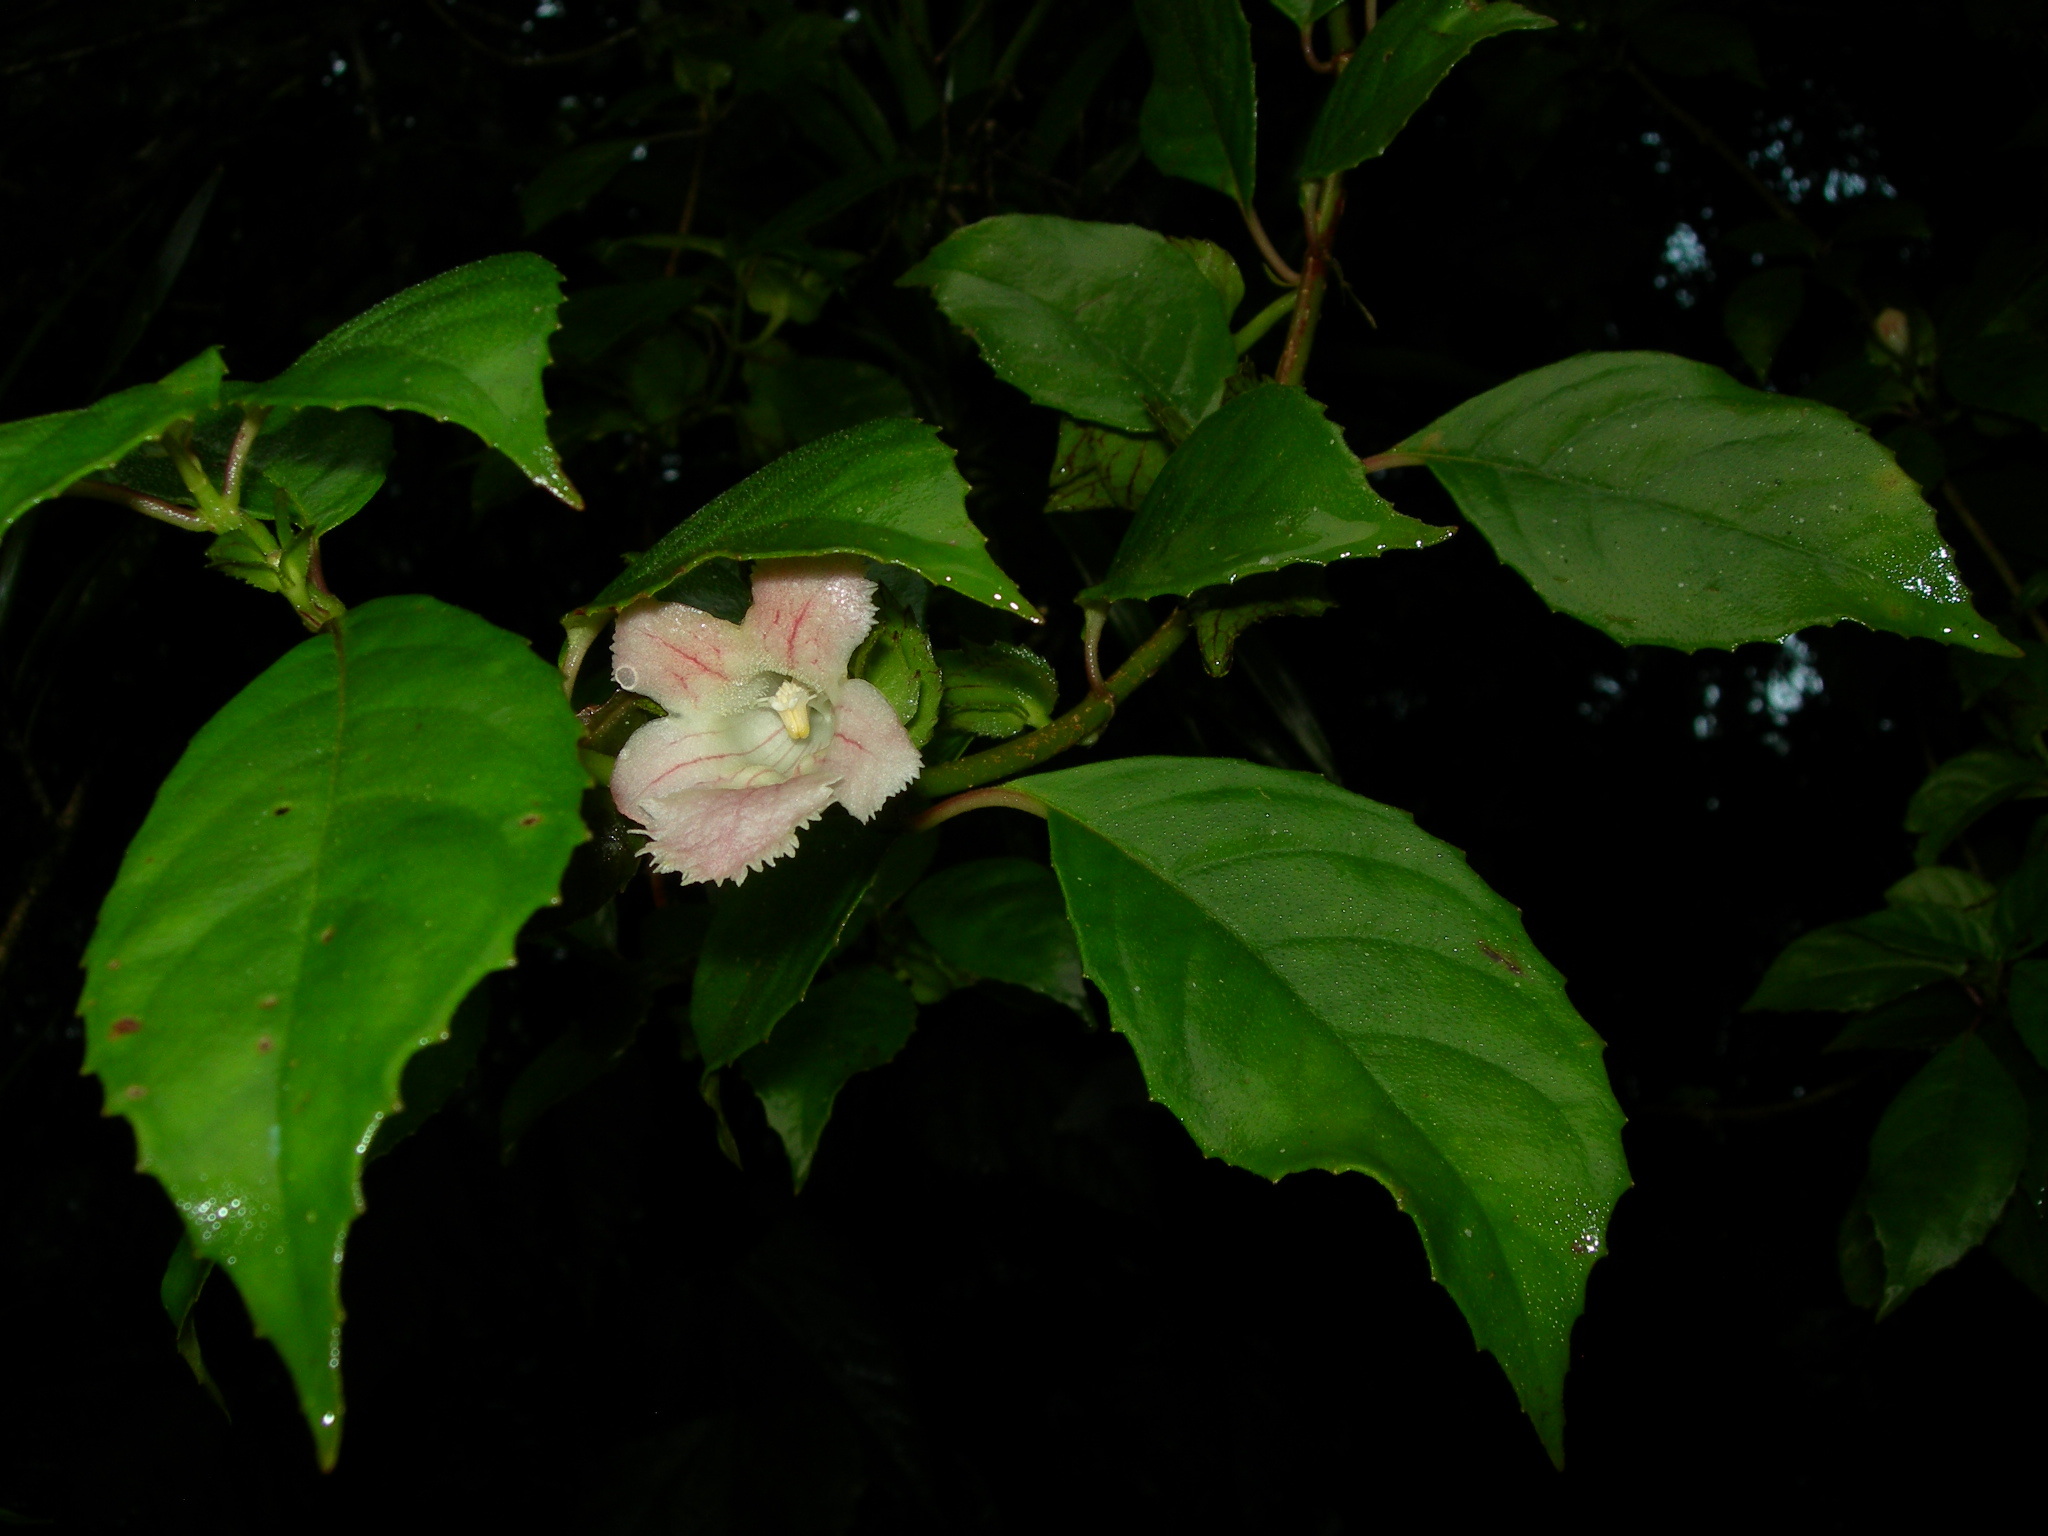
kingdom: Plantae
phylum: Tracheophyta
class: Magnoliopsida
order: Lamiales
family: Gesneriaceae
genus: Drymonia
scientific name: Drymonia serrulata
